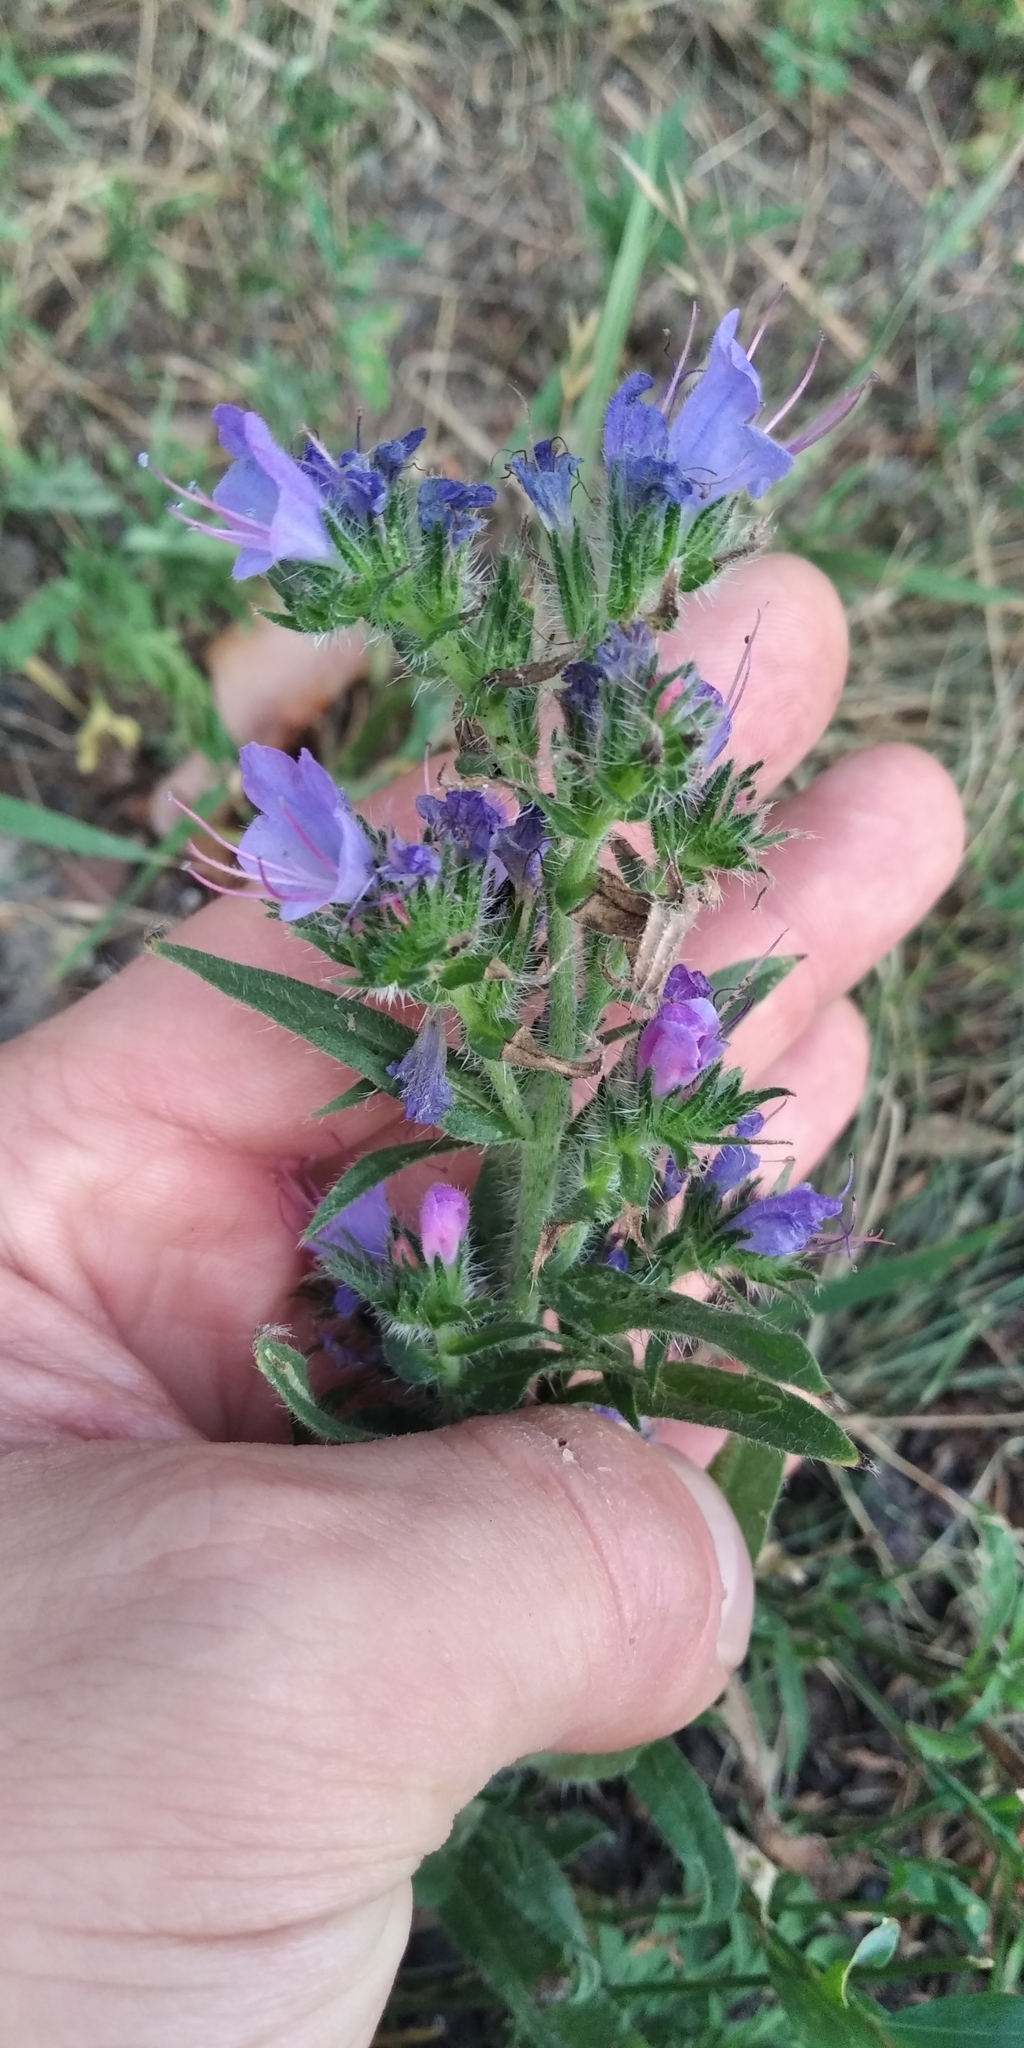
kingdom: Plantae
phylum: Tracheophyta
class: Magnoliopsida
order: Boraginales
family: Boraginaceae
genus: Echium
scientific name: Echium vulgare
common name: Common viper's bugloss
